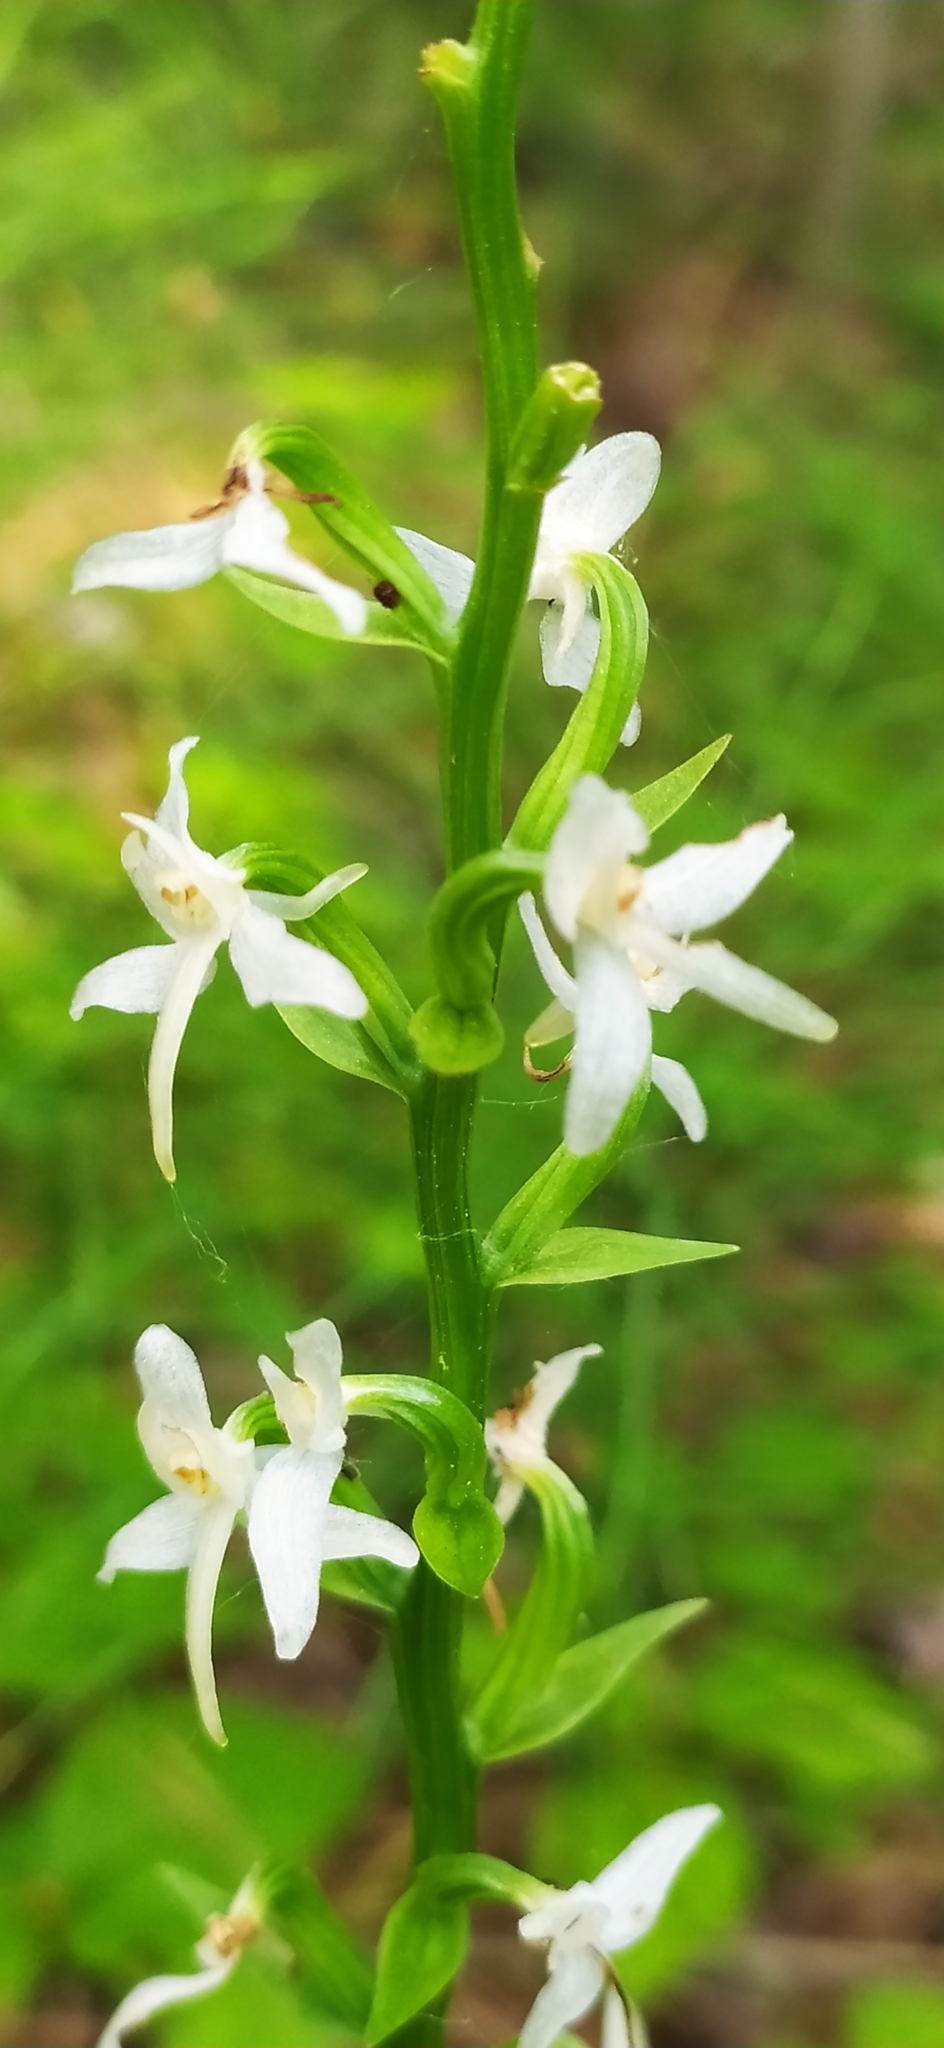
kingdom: Plantae
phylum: Tracheophyta
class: Liliopsida
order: Asparagales
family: Orchidaceae
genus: Platanthera
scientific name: Platanthera bifolia
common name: Lesser butterfly-orchid
